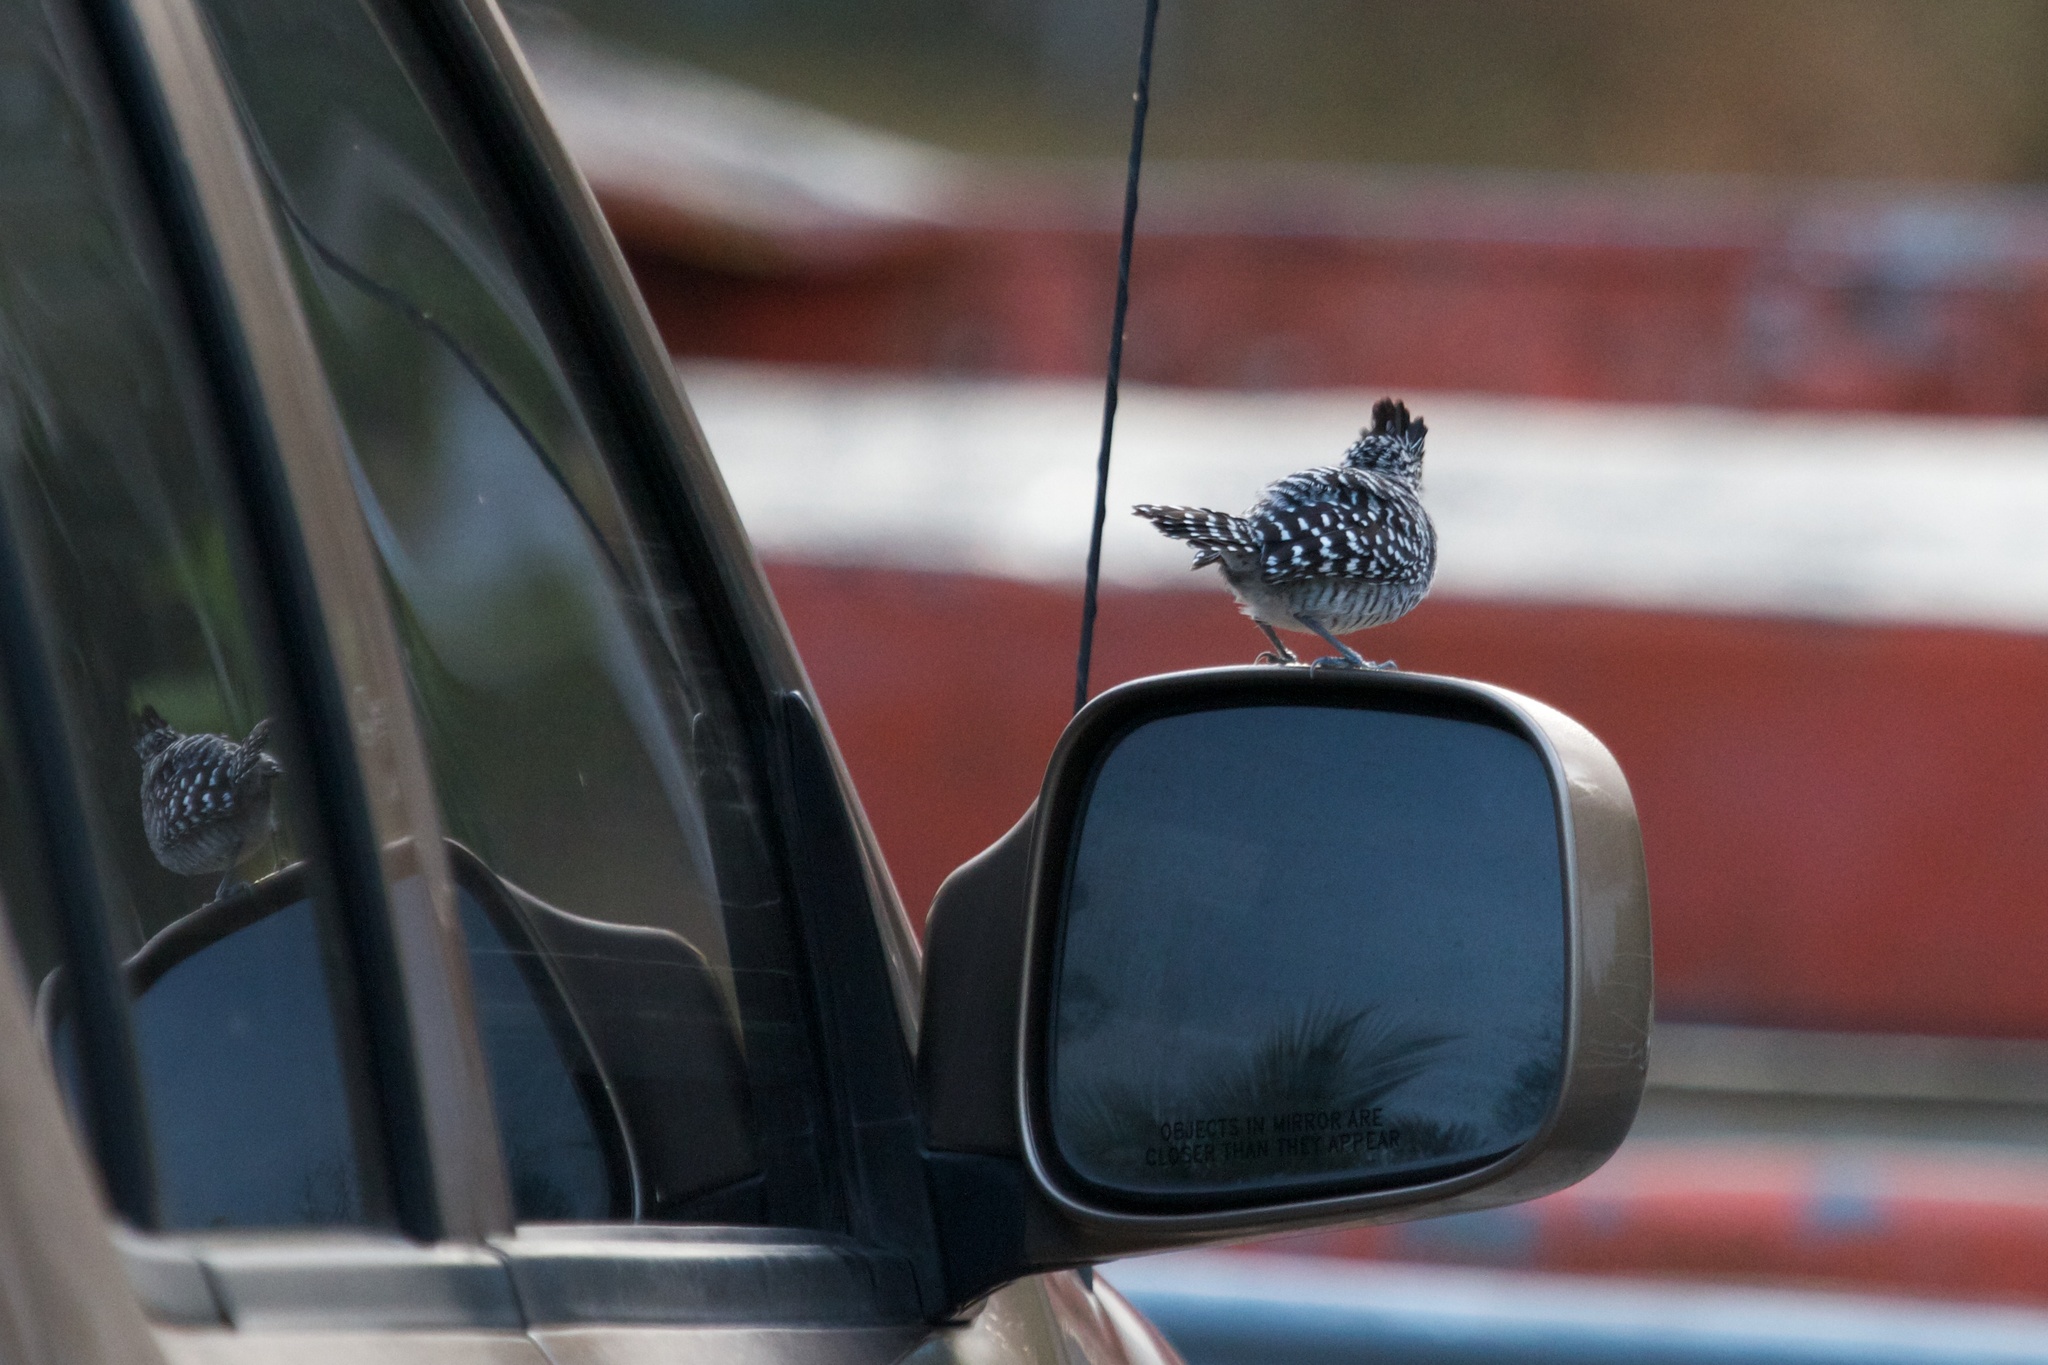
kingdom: Animalia
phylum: Chordata
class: Aves
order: Passeriformes
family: Thamnophilidae
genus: Cymbilaimus
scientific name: Cymbilaimus lineatus
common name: Fasciated antshrike
